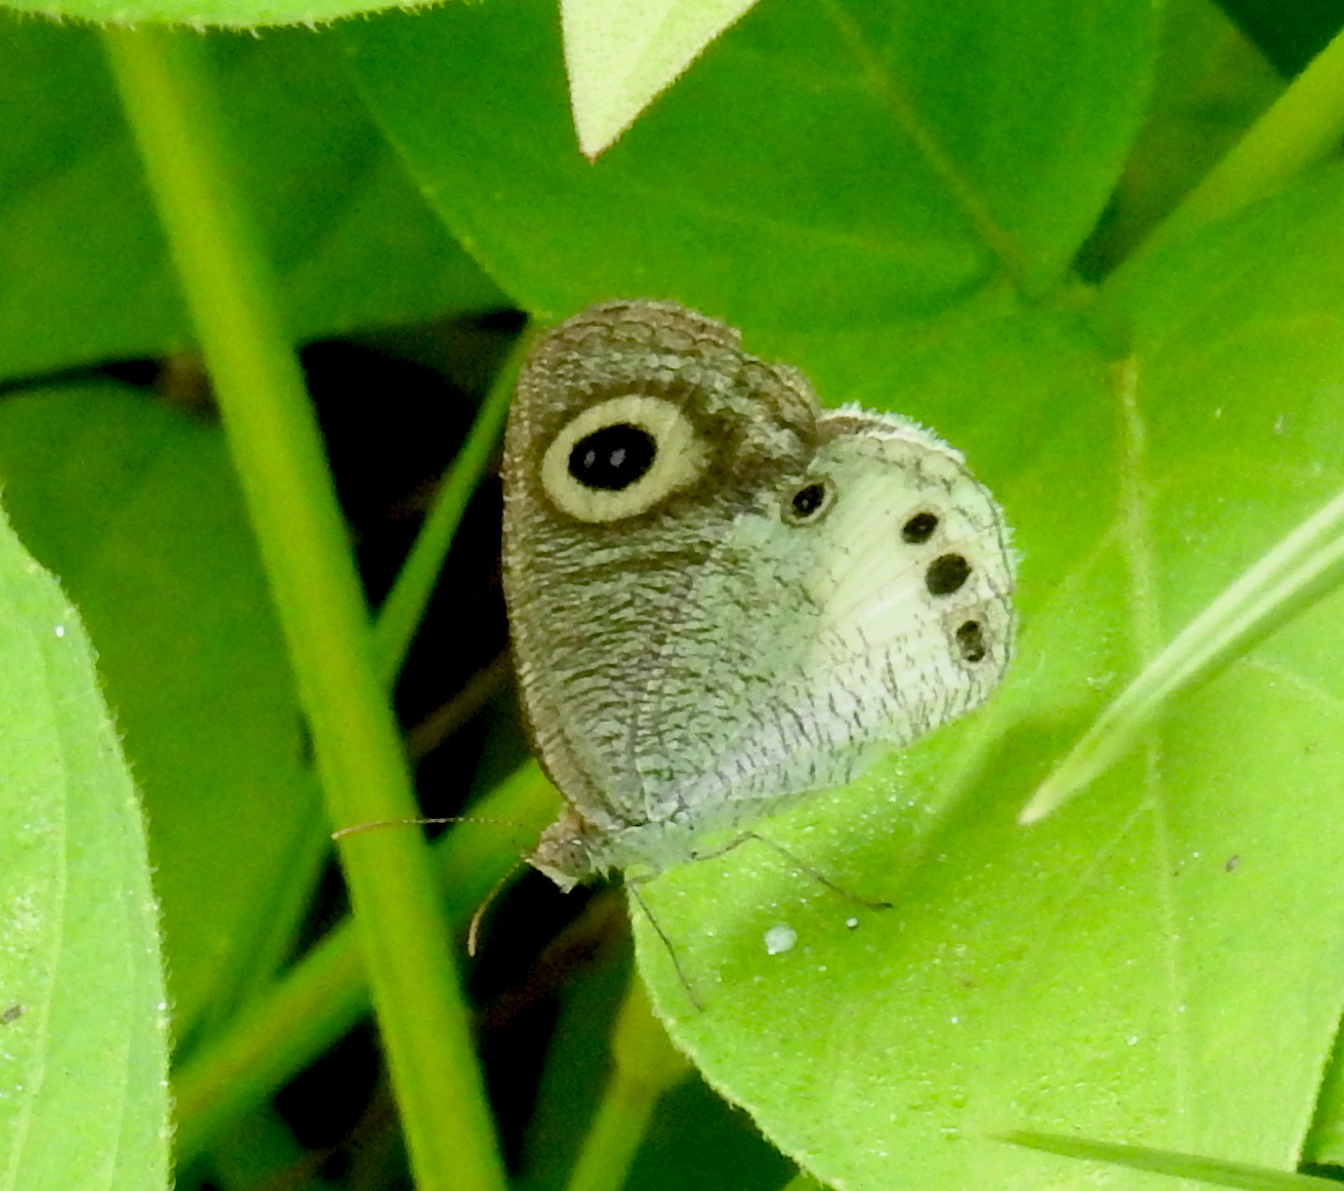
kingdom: Animalia
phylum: Arthropoda
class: Insecta
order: Lepidoptera
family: Nymphalidae
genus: Ypthima
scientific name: Ypthima ceylonica
